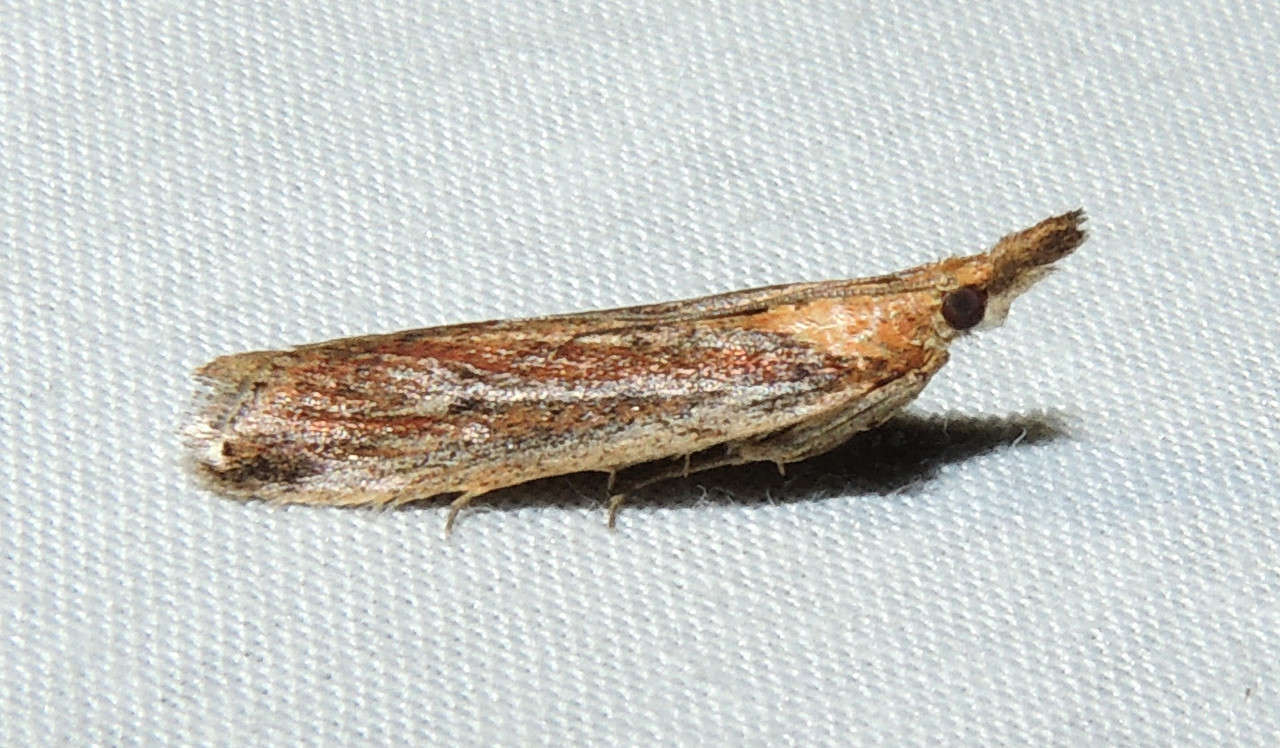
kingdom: Animalia
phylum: Arthropoda
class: Insecta
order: Lepidoptera
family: Pyralidae
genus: Faveria
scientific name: Faveria tritalis
